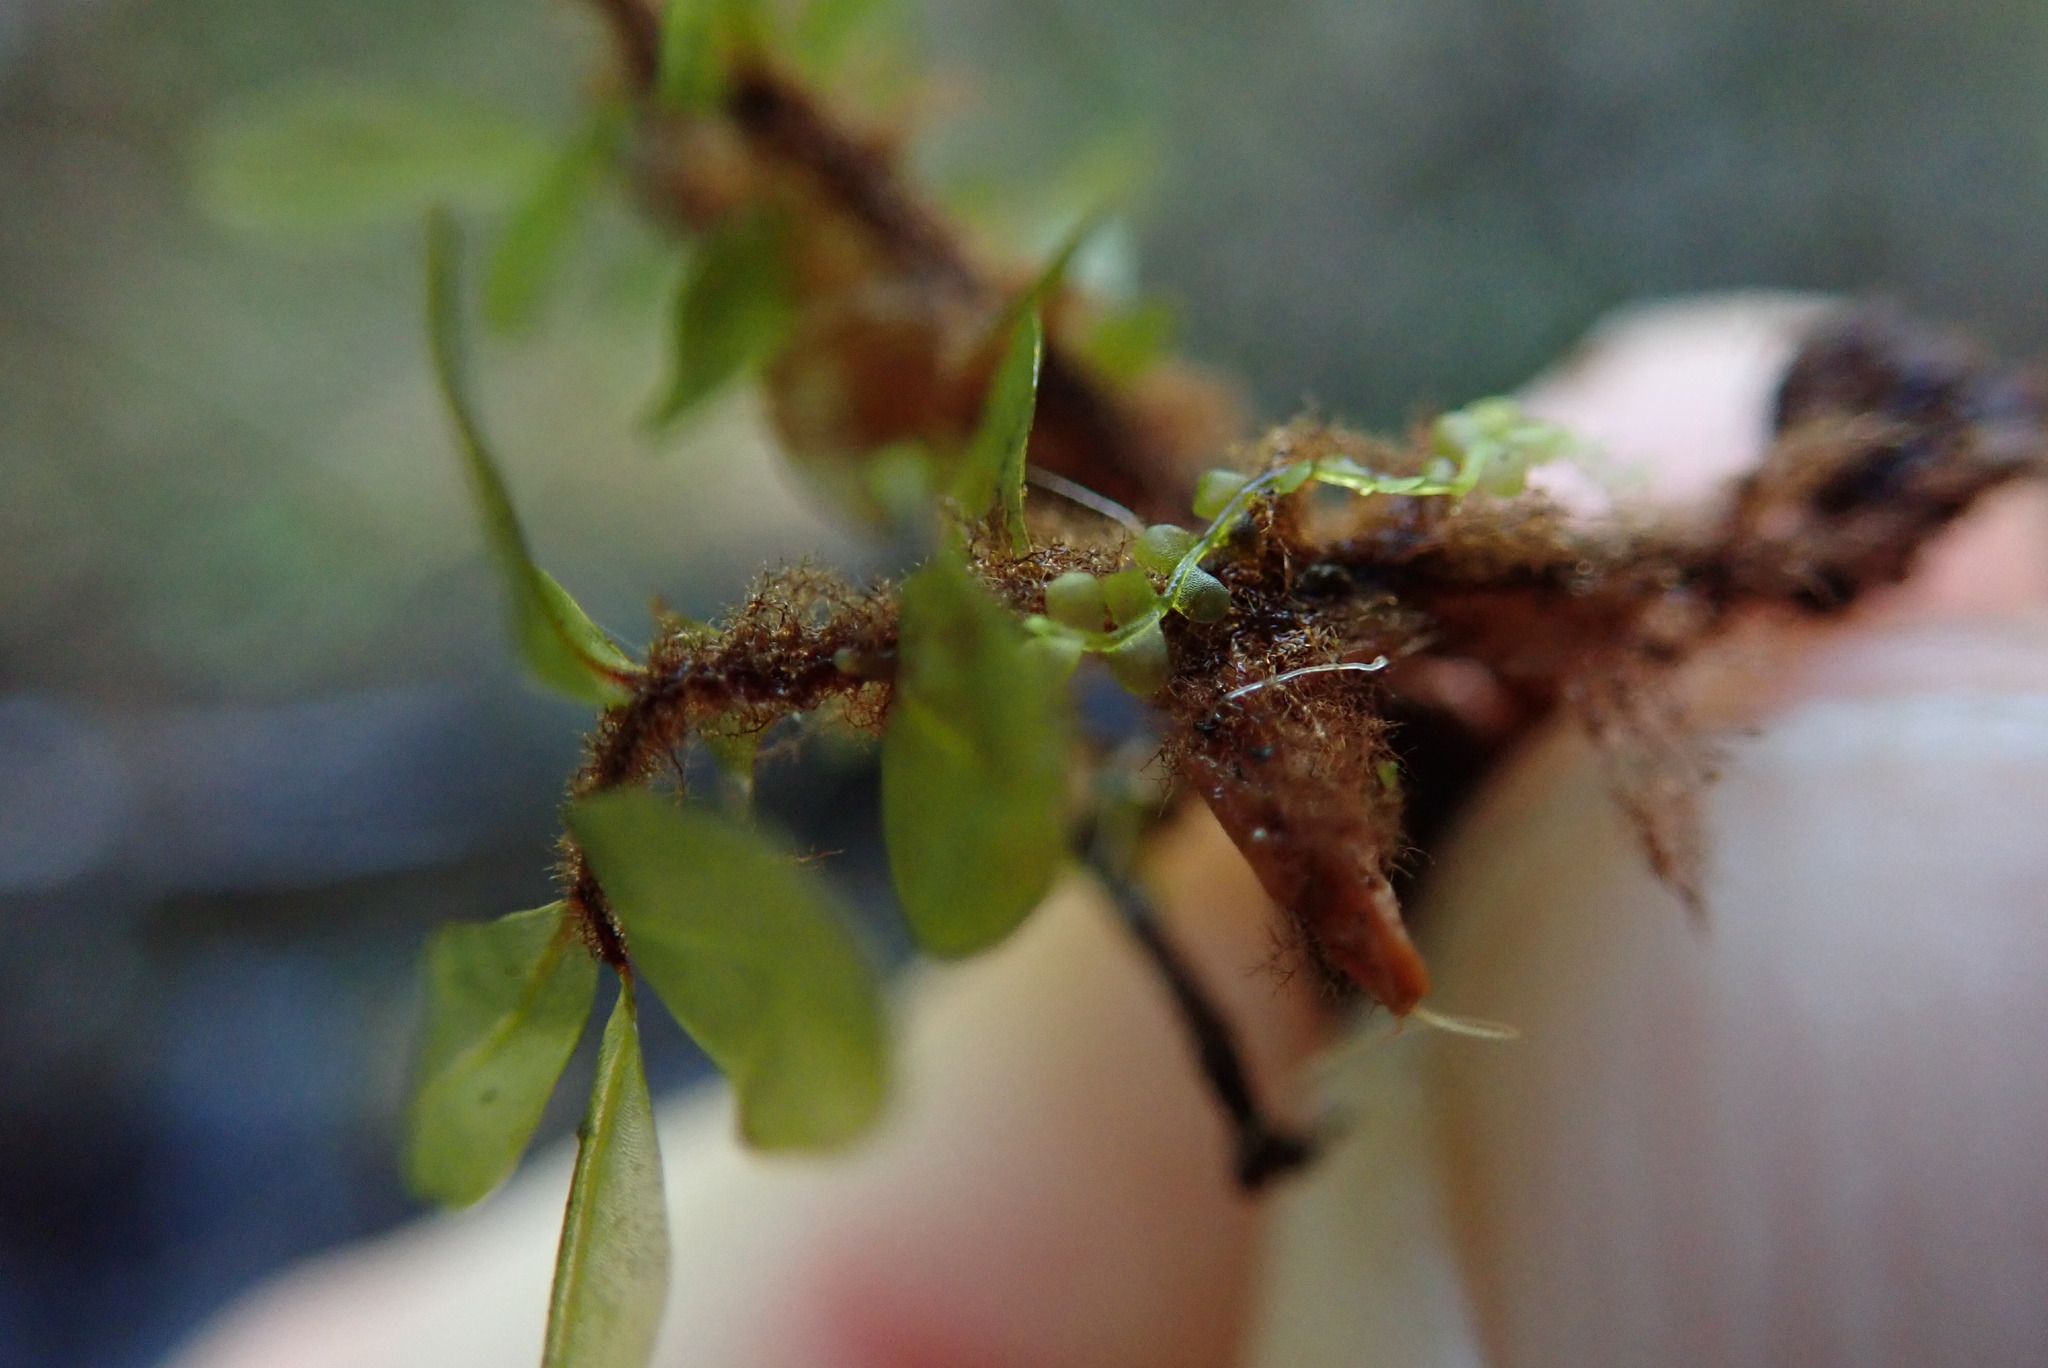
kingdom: Plantae
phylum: Bryophyta
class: Bryopsida
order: Bryales
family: Mniaceae
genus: Rhizomnium
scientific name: Rhizomnium magnifolium
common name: Large-leaved leafy moss
